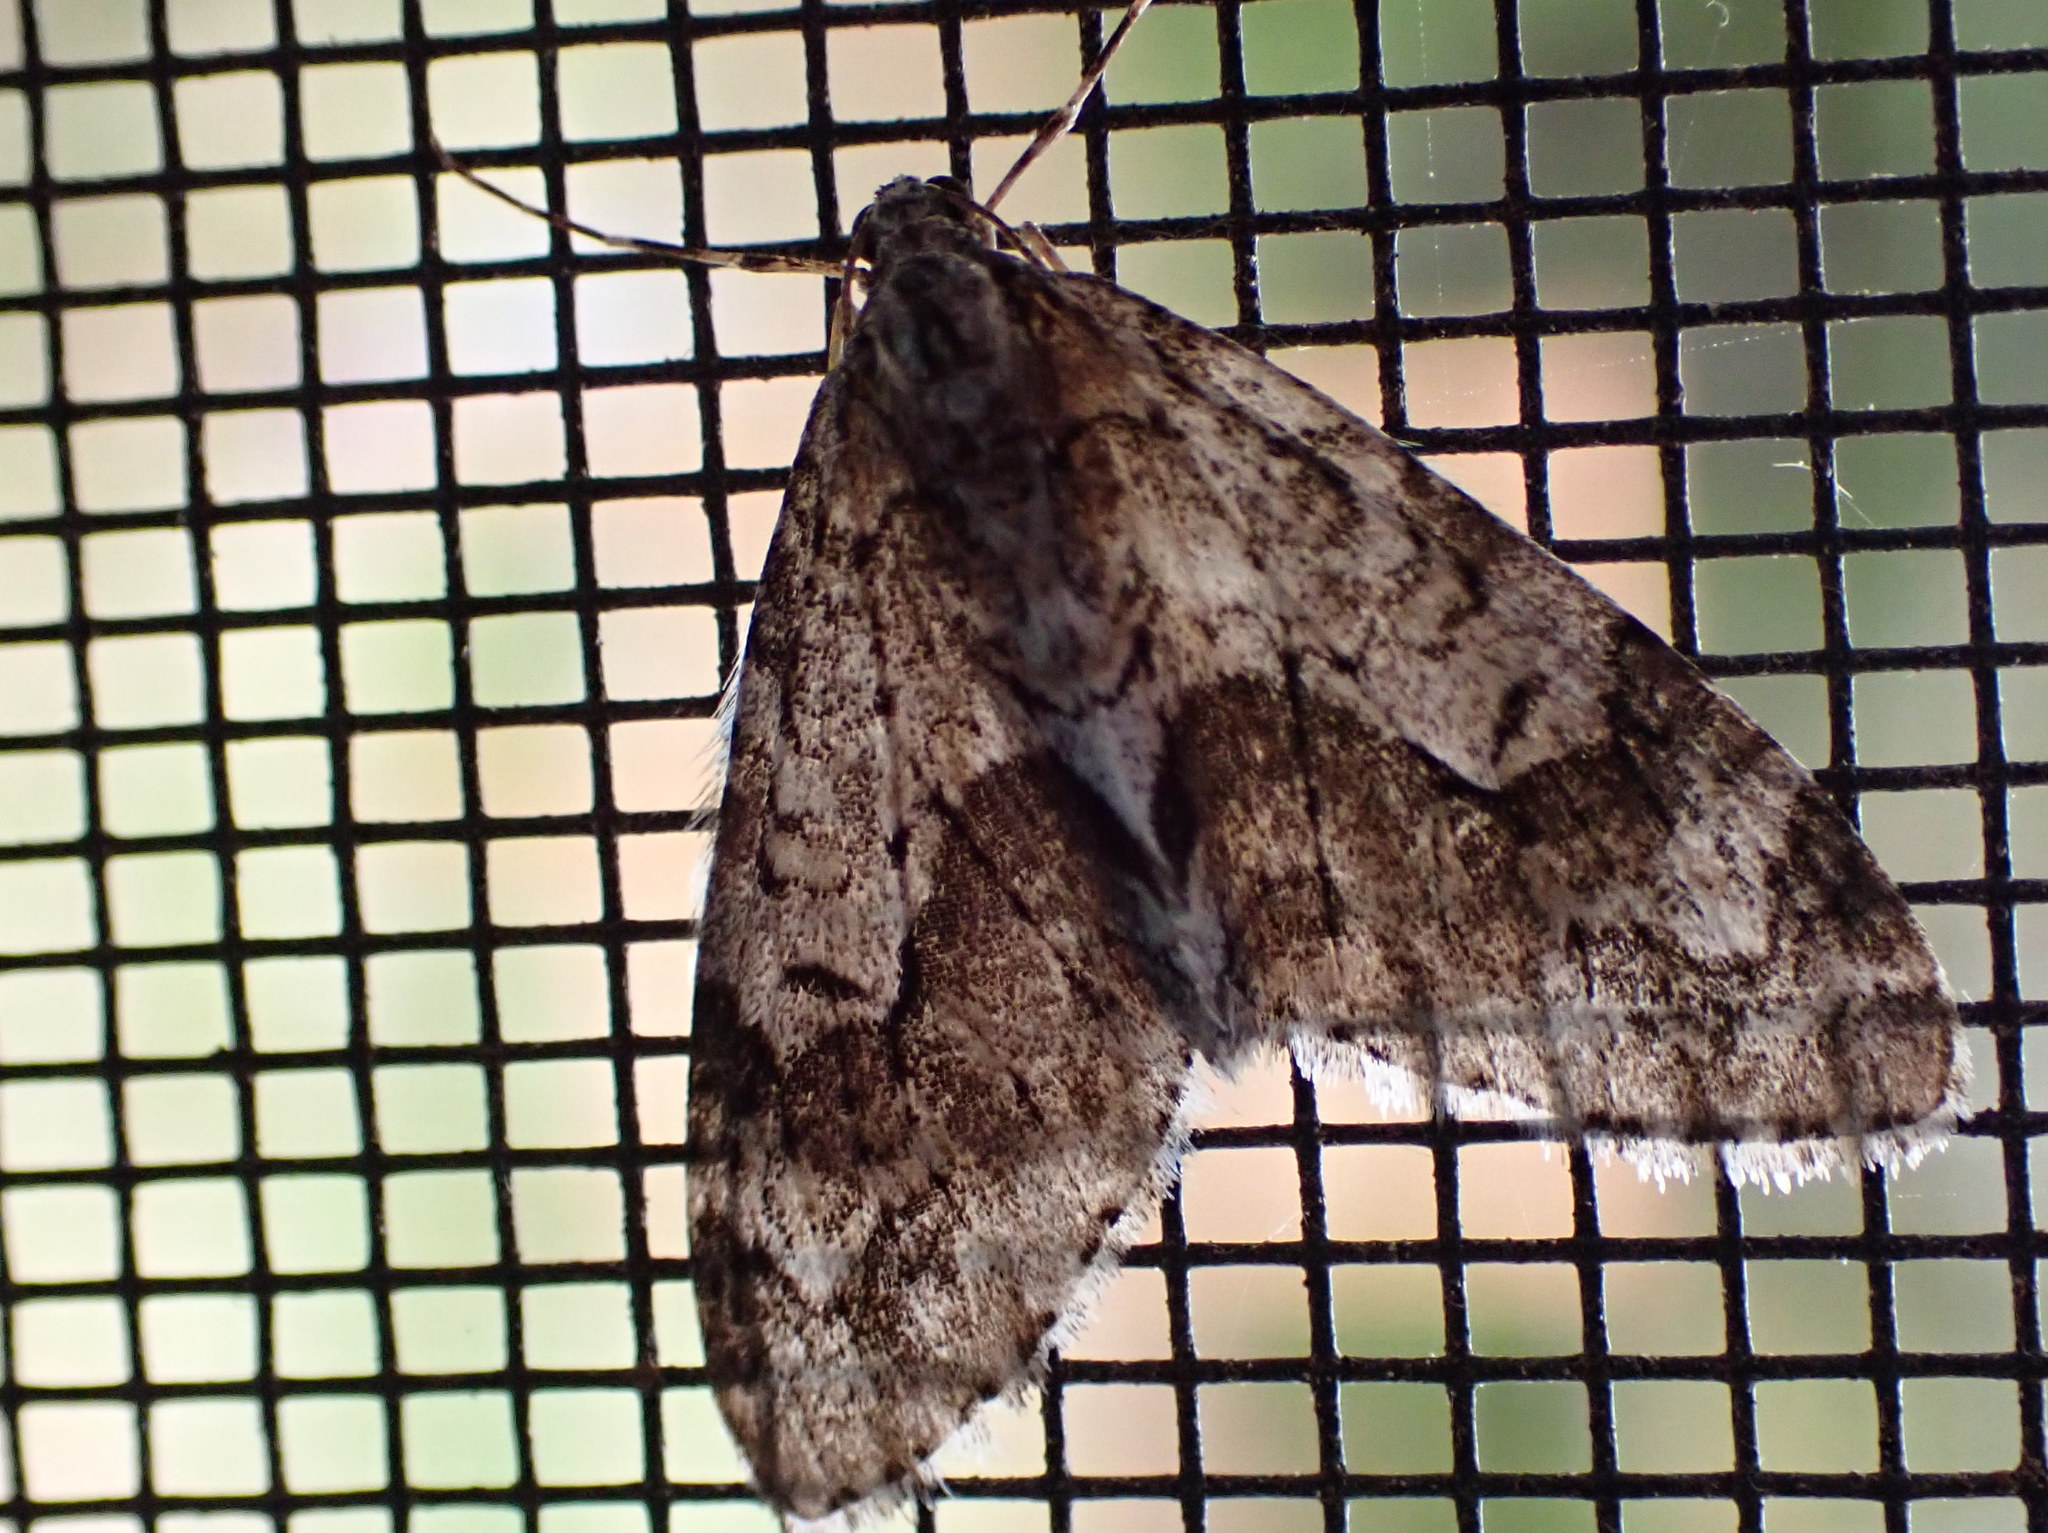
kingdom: Animalia
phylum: Arthropoda
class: Insecta
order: Lepidoptera
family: Geometridae
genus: Cladara
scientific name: Cladara limitaria
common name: Mottled gray carpet
